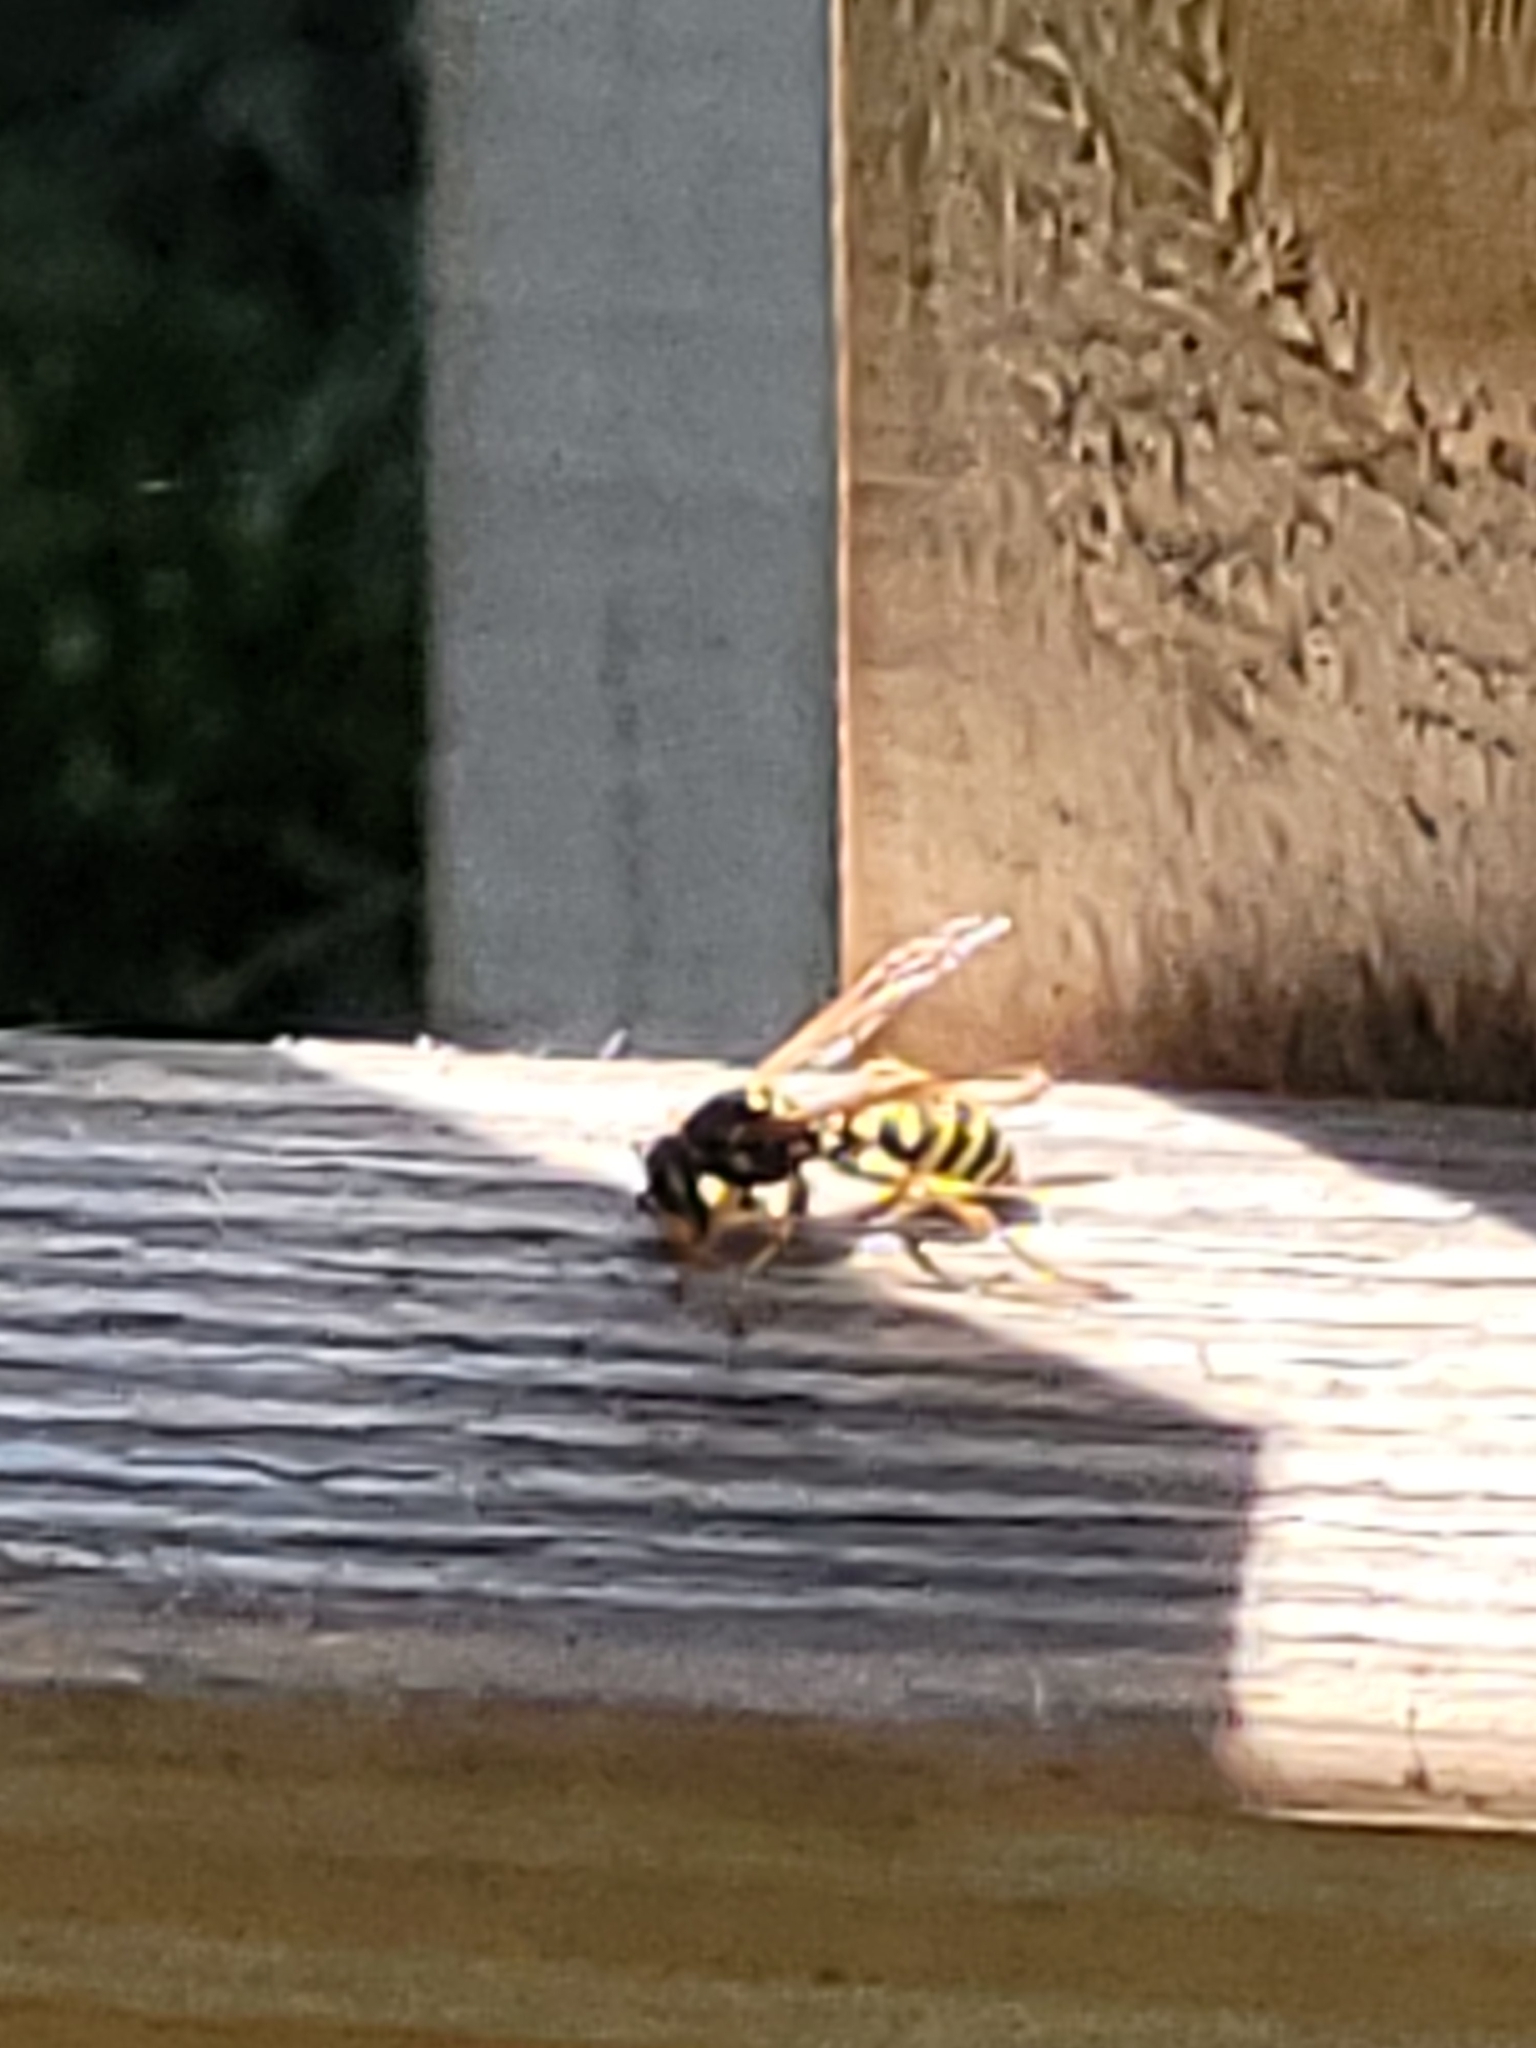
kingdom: Animalia
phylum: Arthropoda
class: Insecta
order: Hymenoptera
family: Eumenidae
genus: Polistes
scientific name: Polistes dominula
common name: Paper wasp
